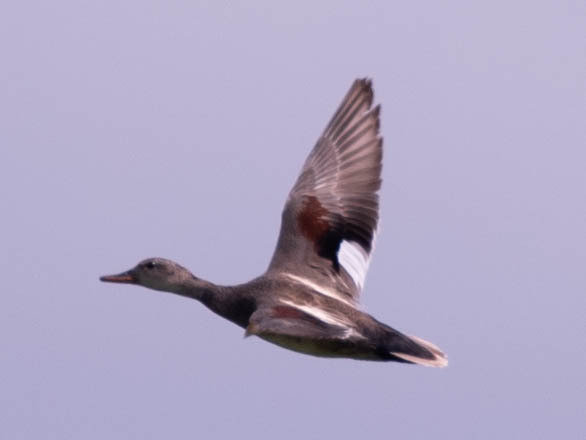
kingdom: Animalia
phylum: Chordata
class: Aves
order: Anseriformes
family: Anatidae
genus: Mareca
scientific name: Mareca strepera
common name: Gadwall
